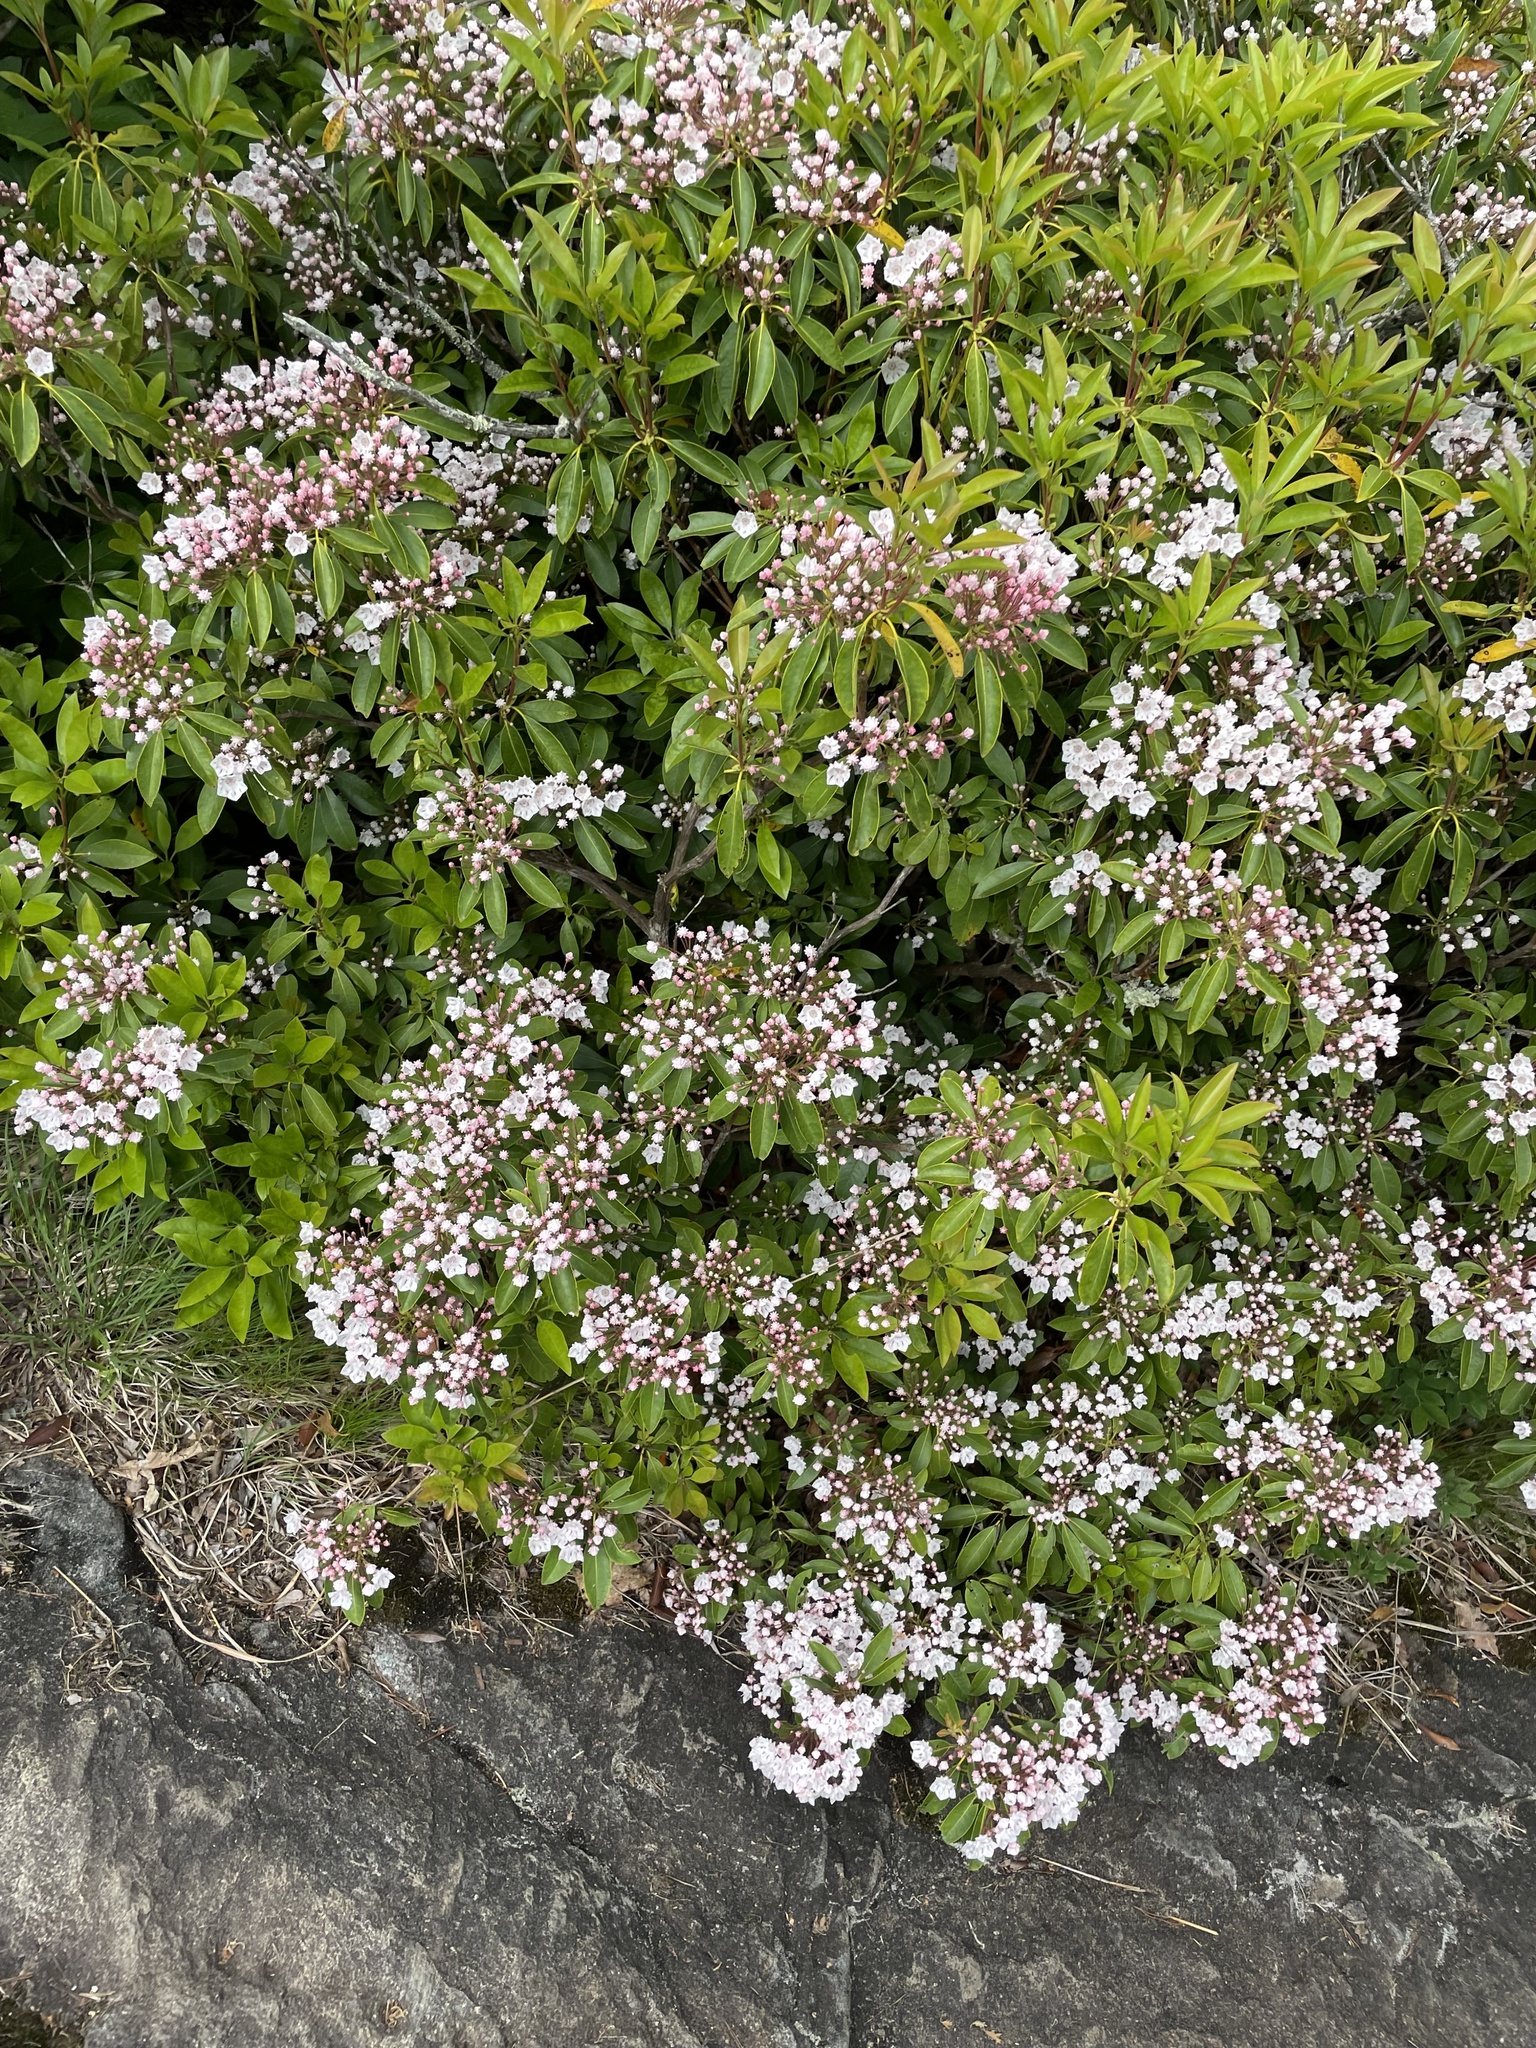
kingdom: Plantae
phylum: Tracheophyta
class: Magnoliopsida
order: Ericales
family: Ericaceae
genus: Kalmia
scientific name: Kalmia latifolia
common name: Mountain-laurel
